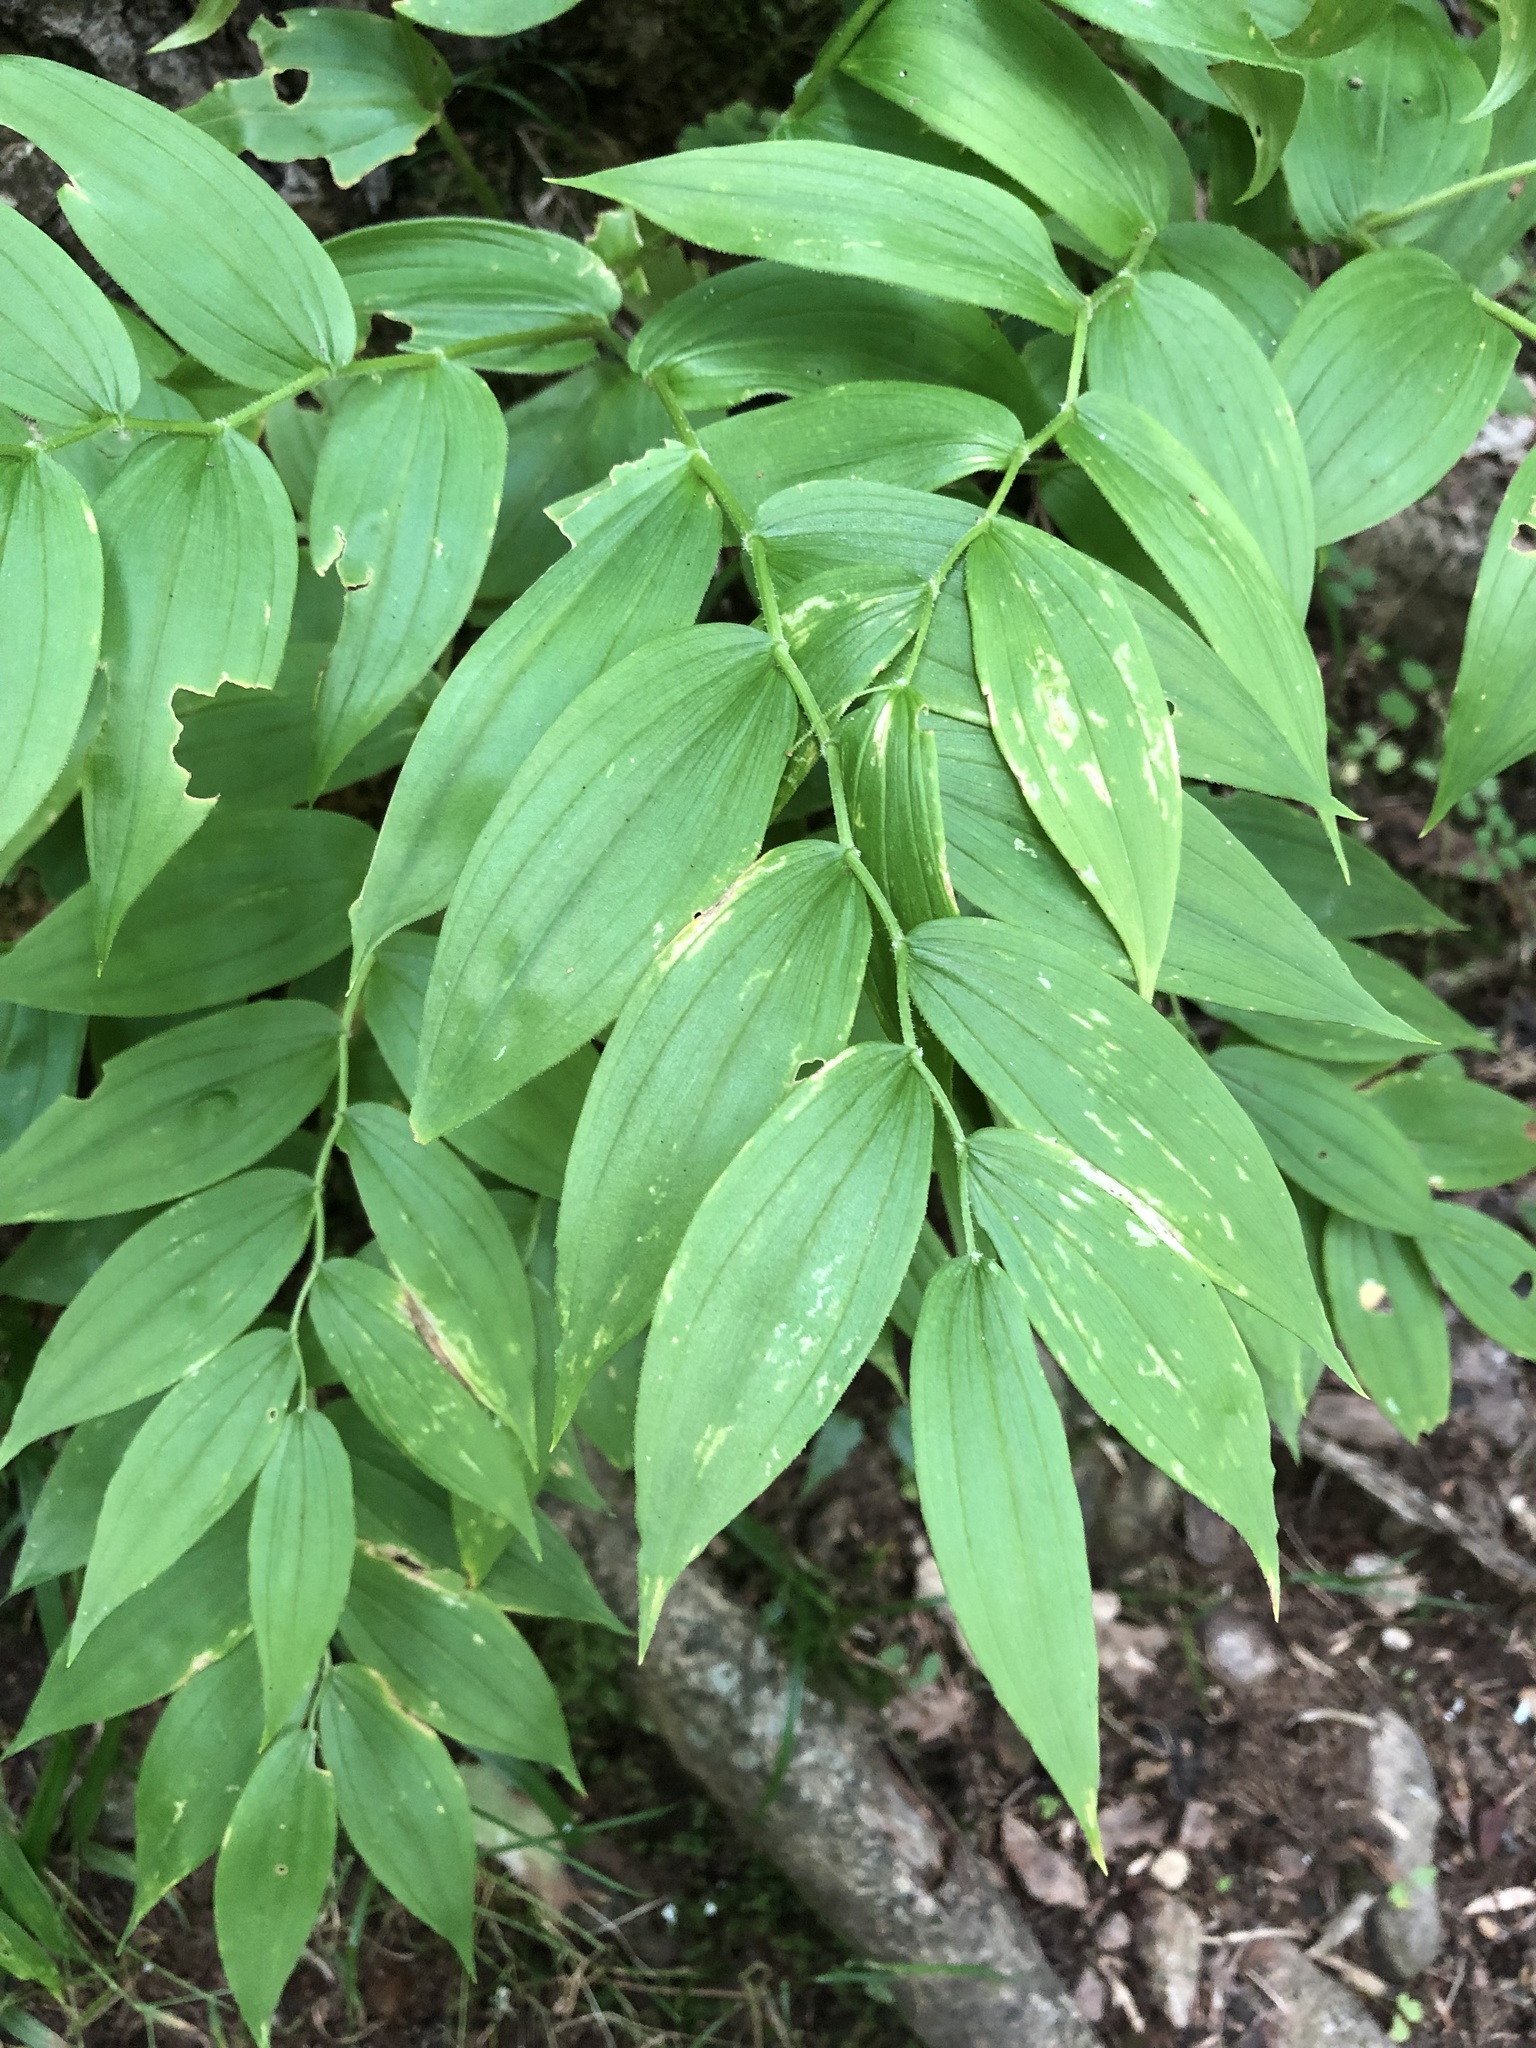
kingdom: Plantae
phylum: Tracheophyta
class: Liliopsida
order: Liliales
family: Liliaceae
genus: Streptopus
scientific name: Streptopus lanceolatus
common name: Rose mandarin
